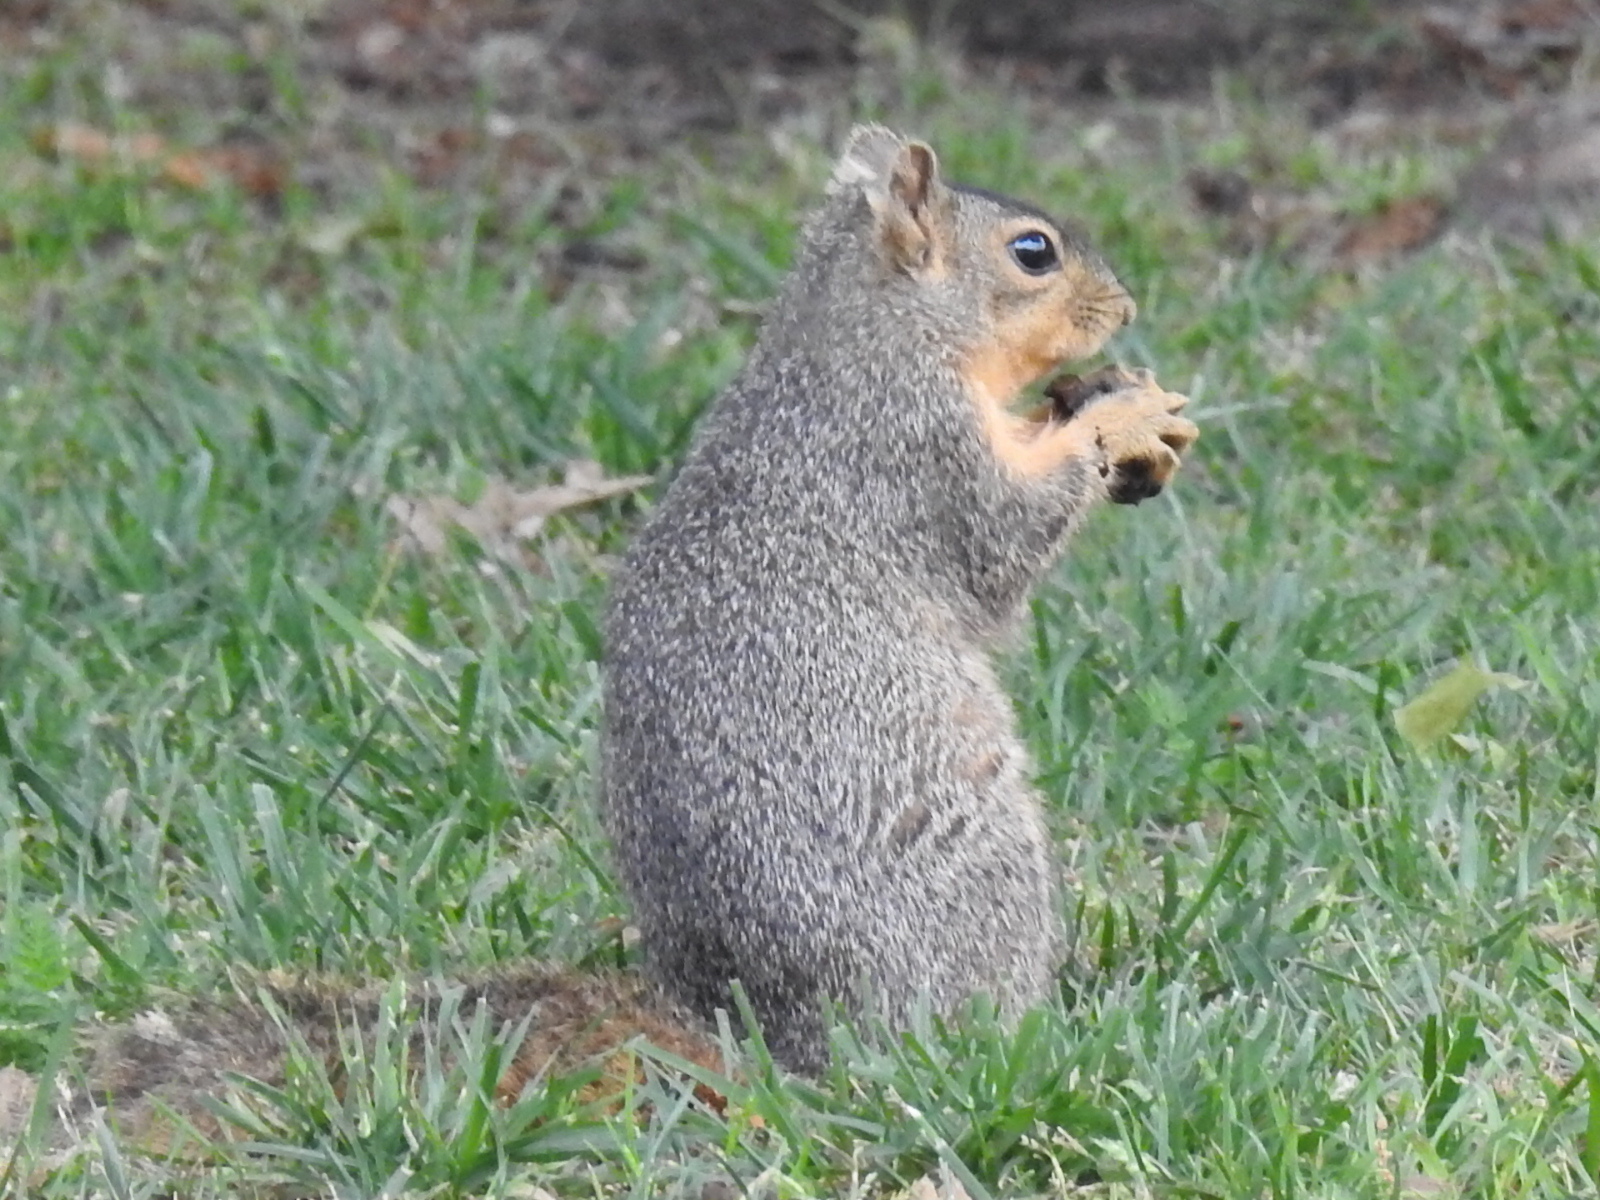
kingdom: Animalia
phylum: Chordata
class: Mammalia
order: Rodentia
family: Sciuridae
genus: Sciurus
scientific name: Sciurus niger
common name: Fox squirrel
